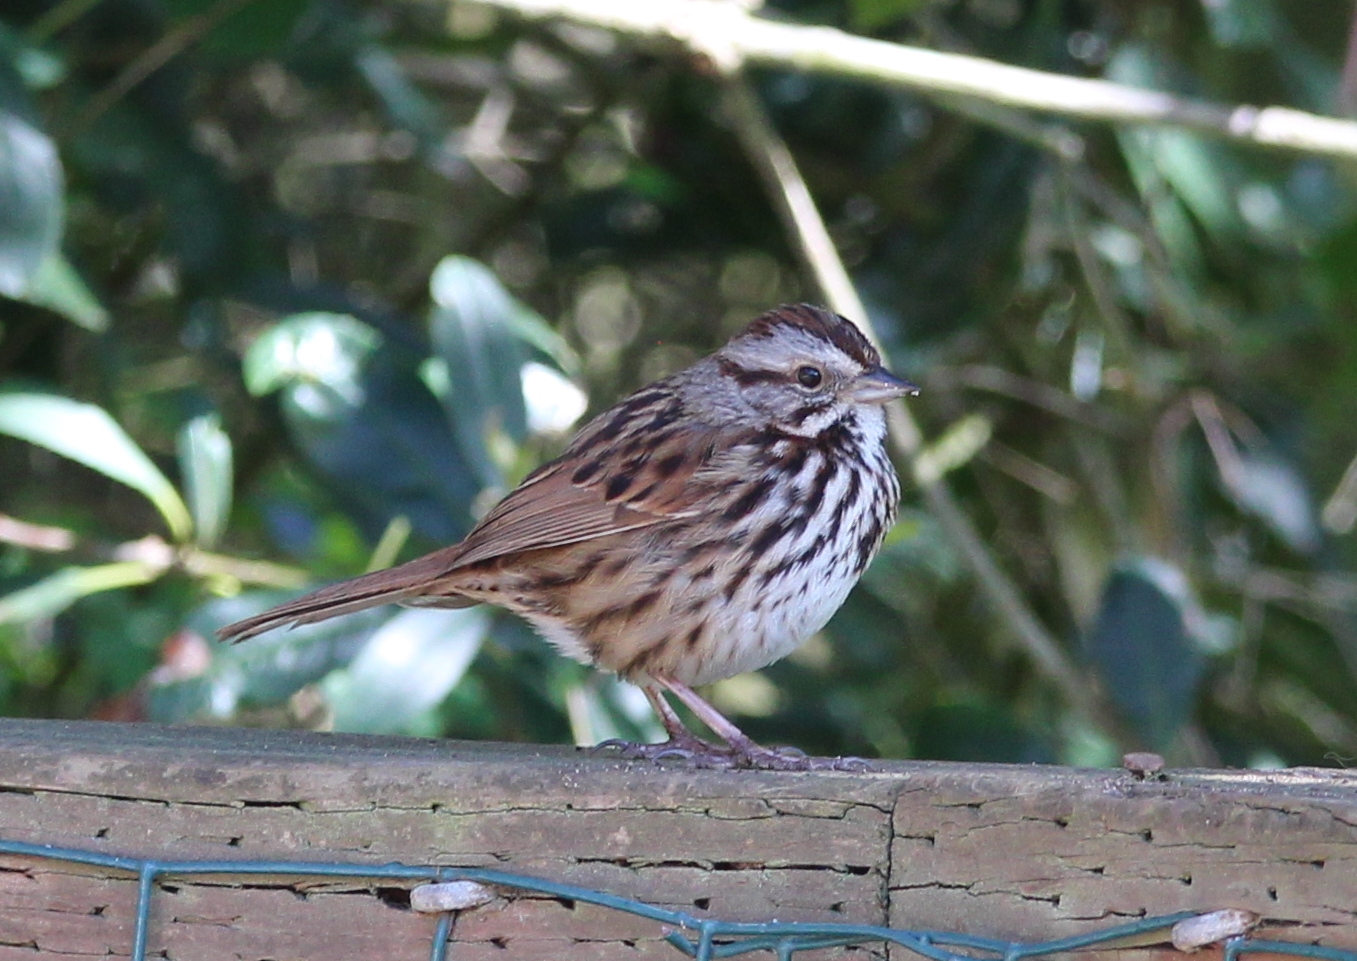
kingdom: Animalia
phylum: Chordata
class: Aves
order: Passeriformes
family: Passerellidae
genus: Melospiza
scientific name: Melospiza melodia
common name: Song sparrow
